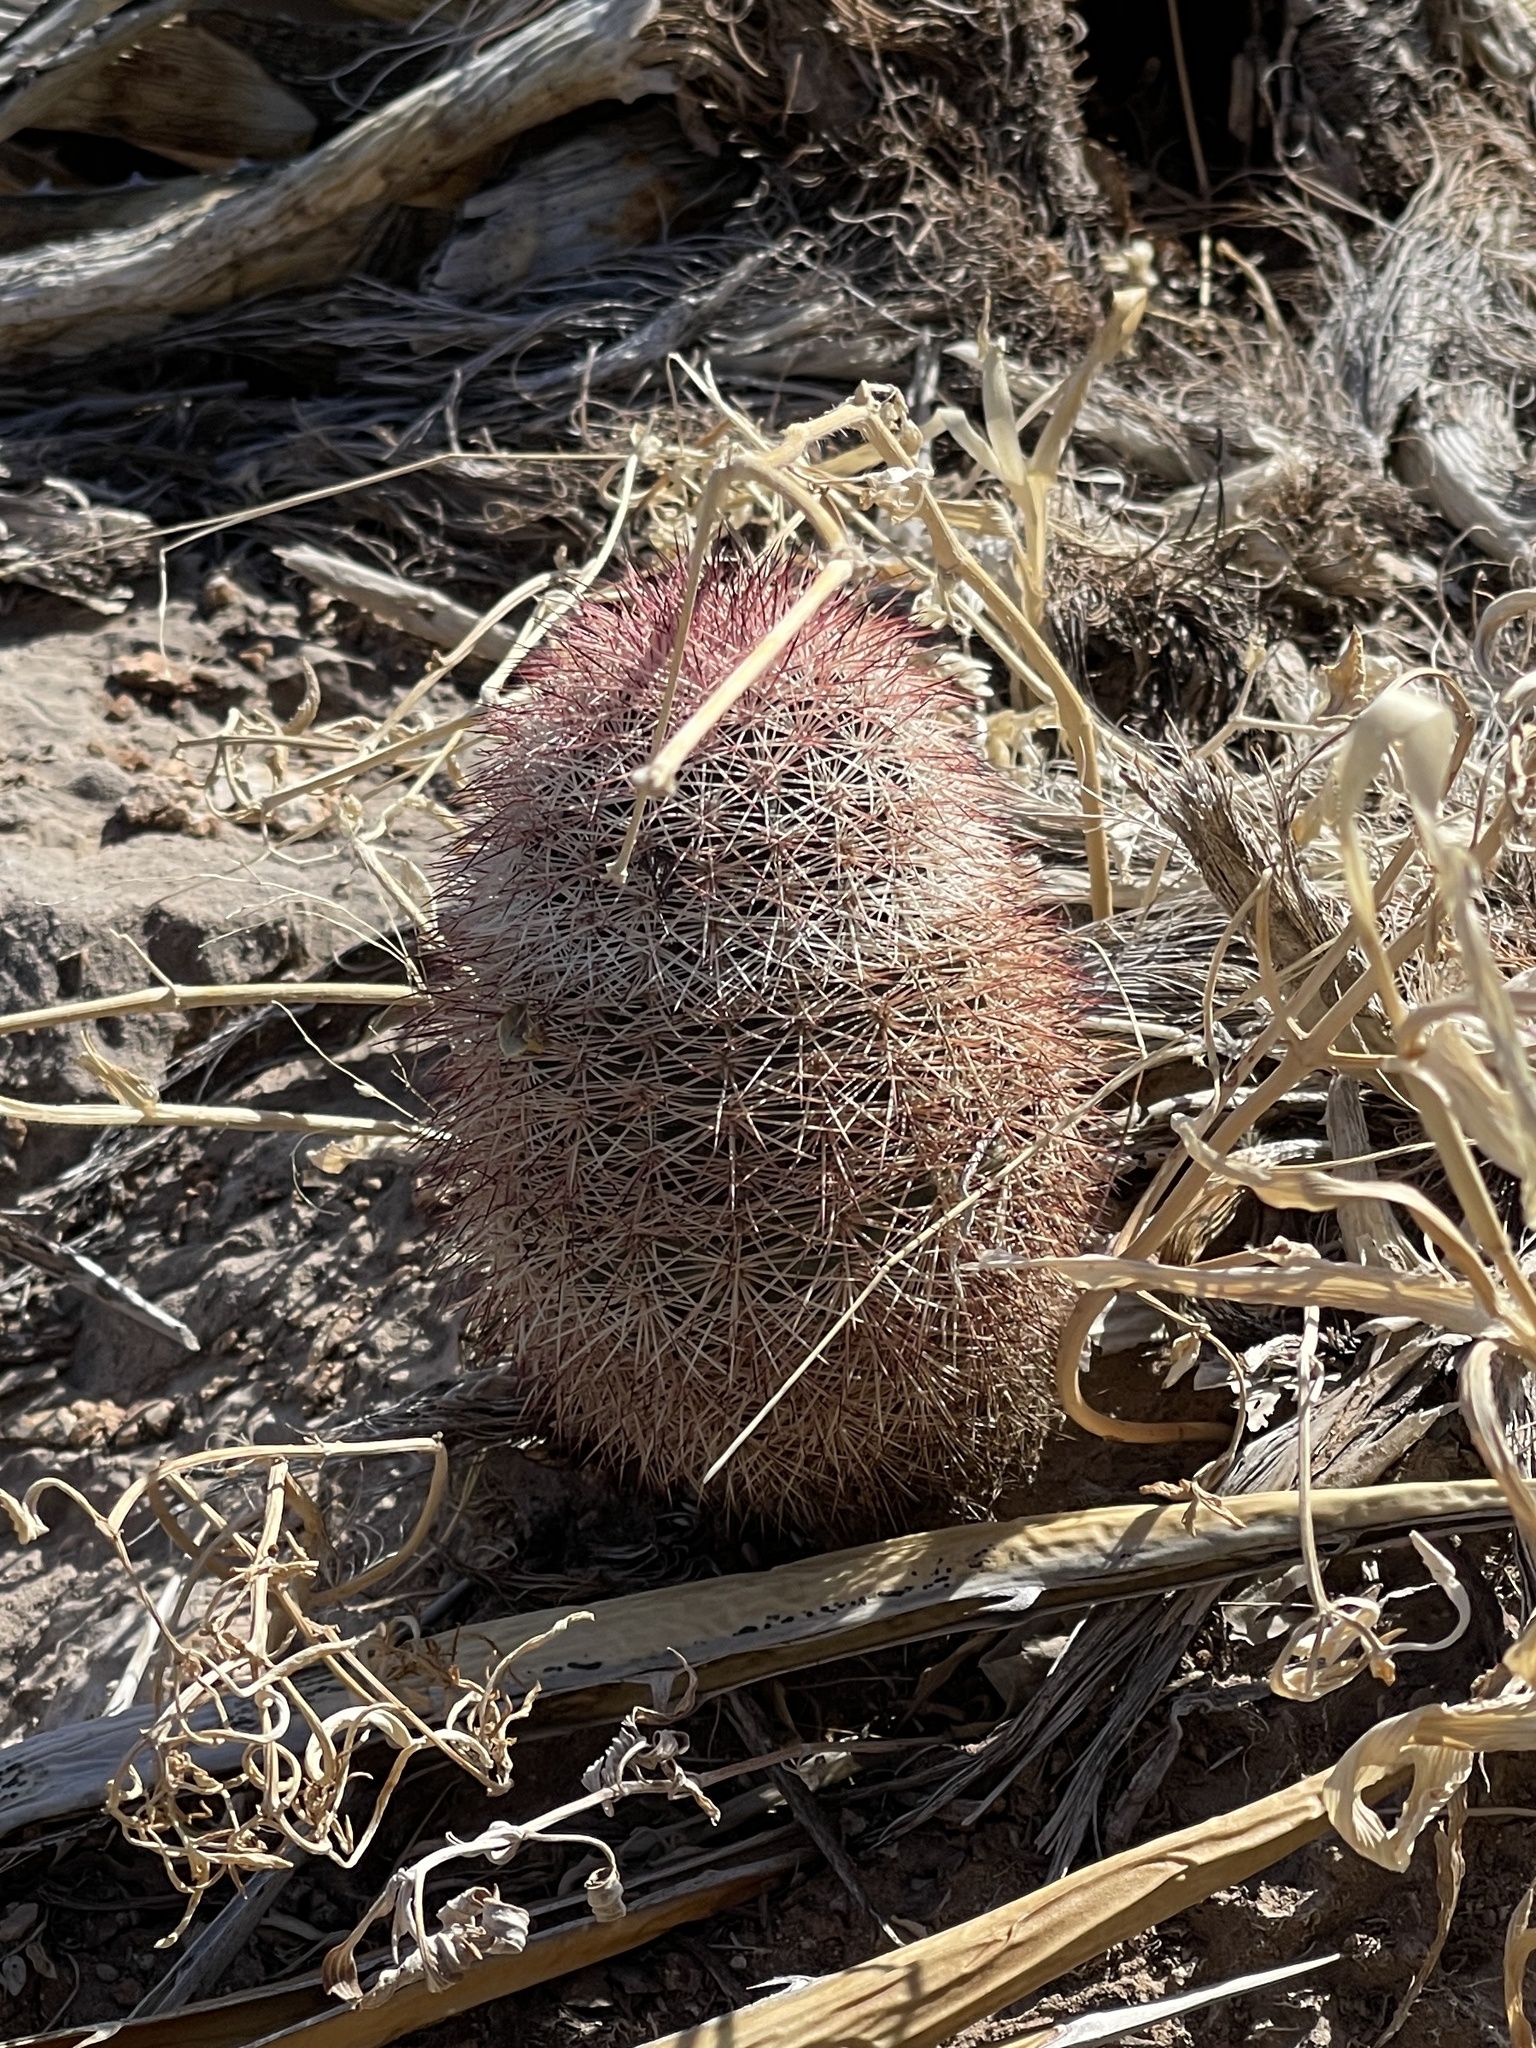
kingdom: Plantae
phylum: Tracheophyta
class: Magnoliopsida
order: Caryophyllales
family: Cactaceae
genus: Echinocereus
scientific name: Echinocereus dasyacanthus
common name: Spiny hedgehog cactus
